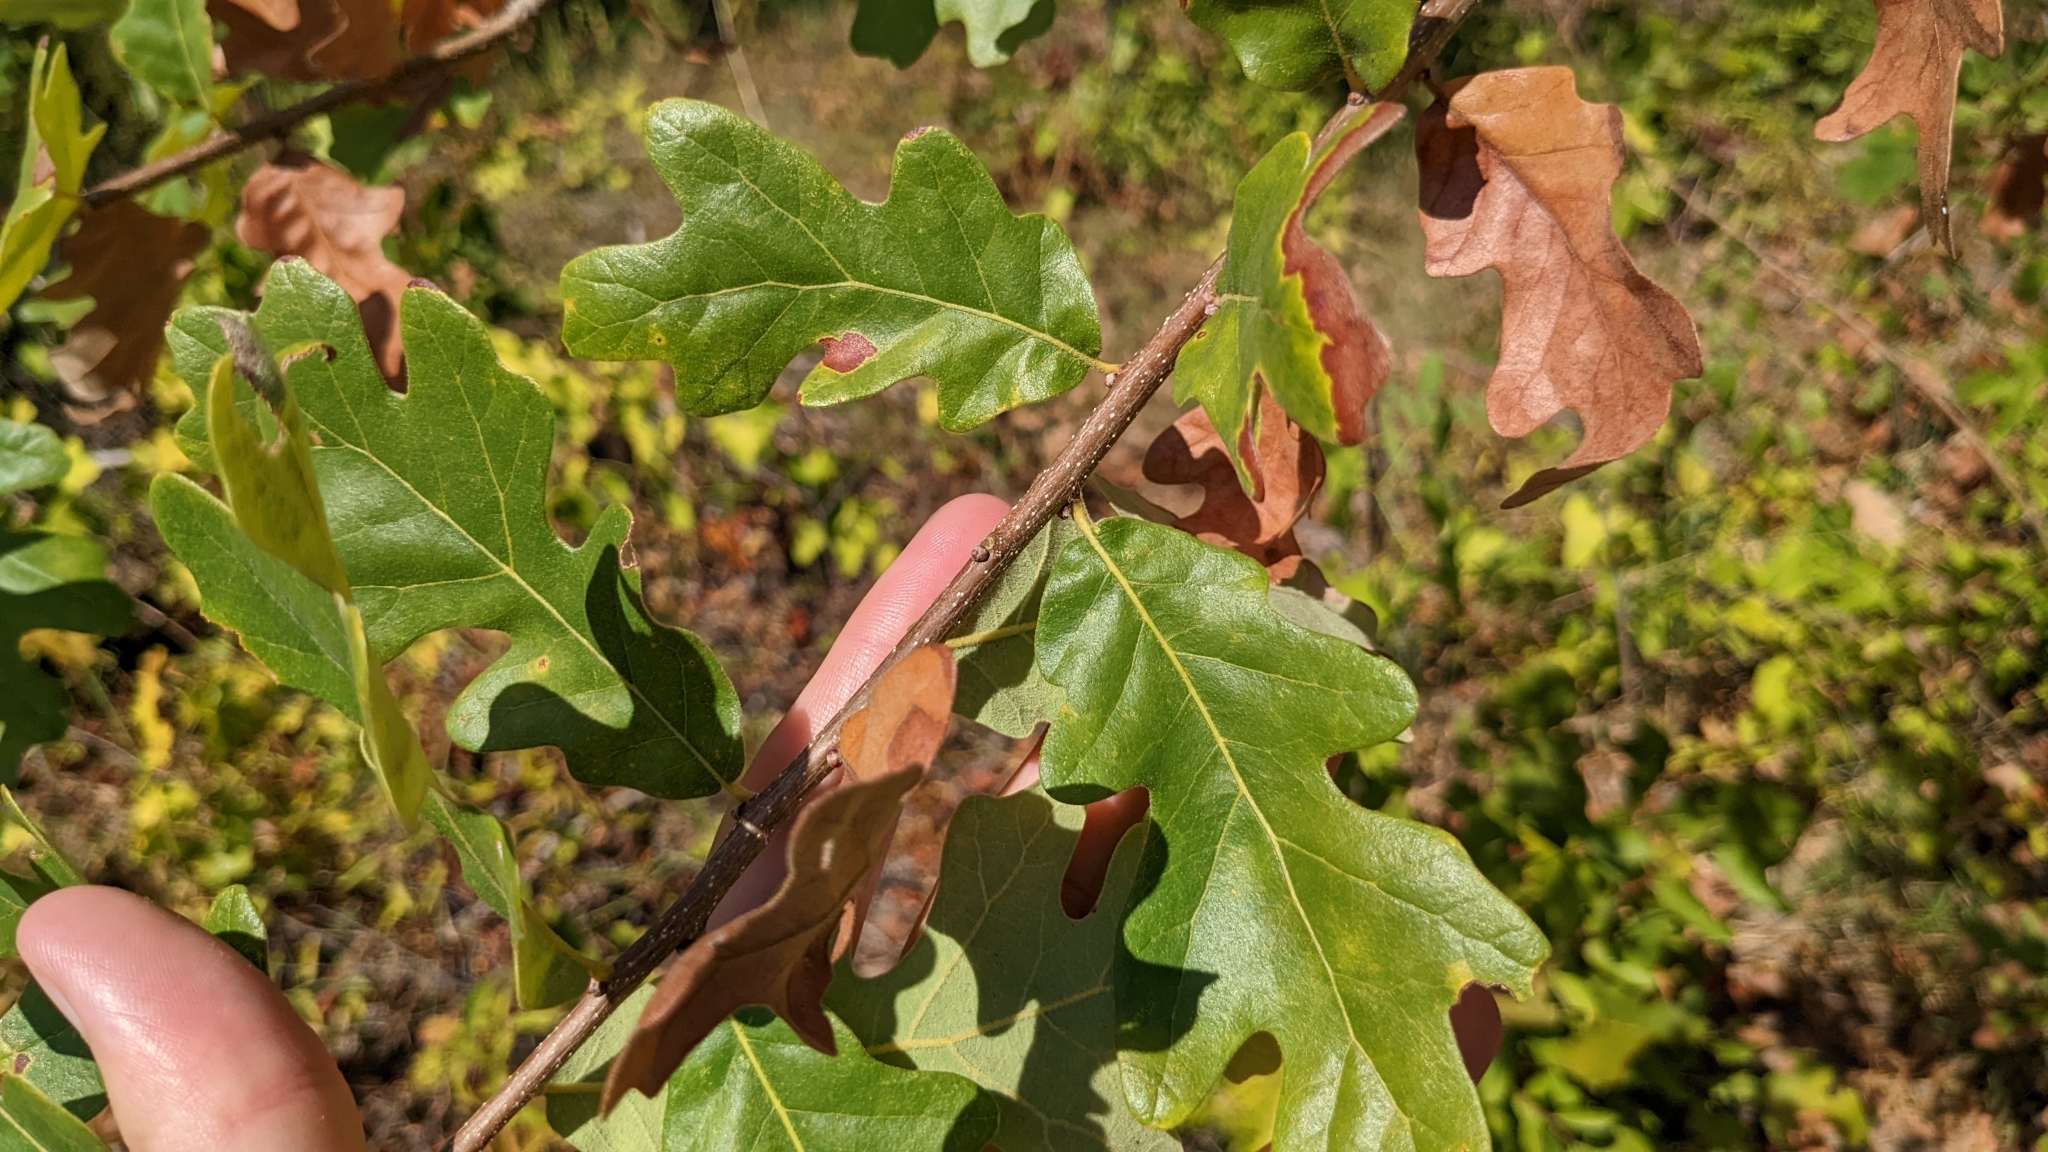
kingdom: Plantae
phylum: Tracheophyta
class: Magnoliopsida
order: Fagales
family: Fagaceae
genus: Quercus
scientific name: Quercus margaretiae
